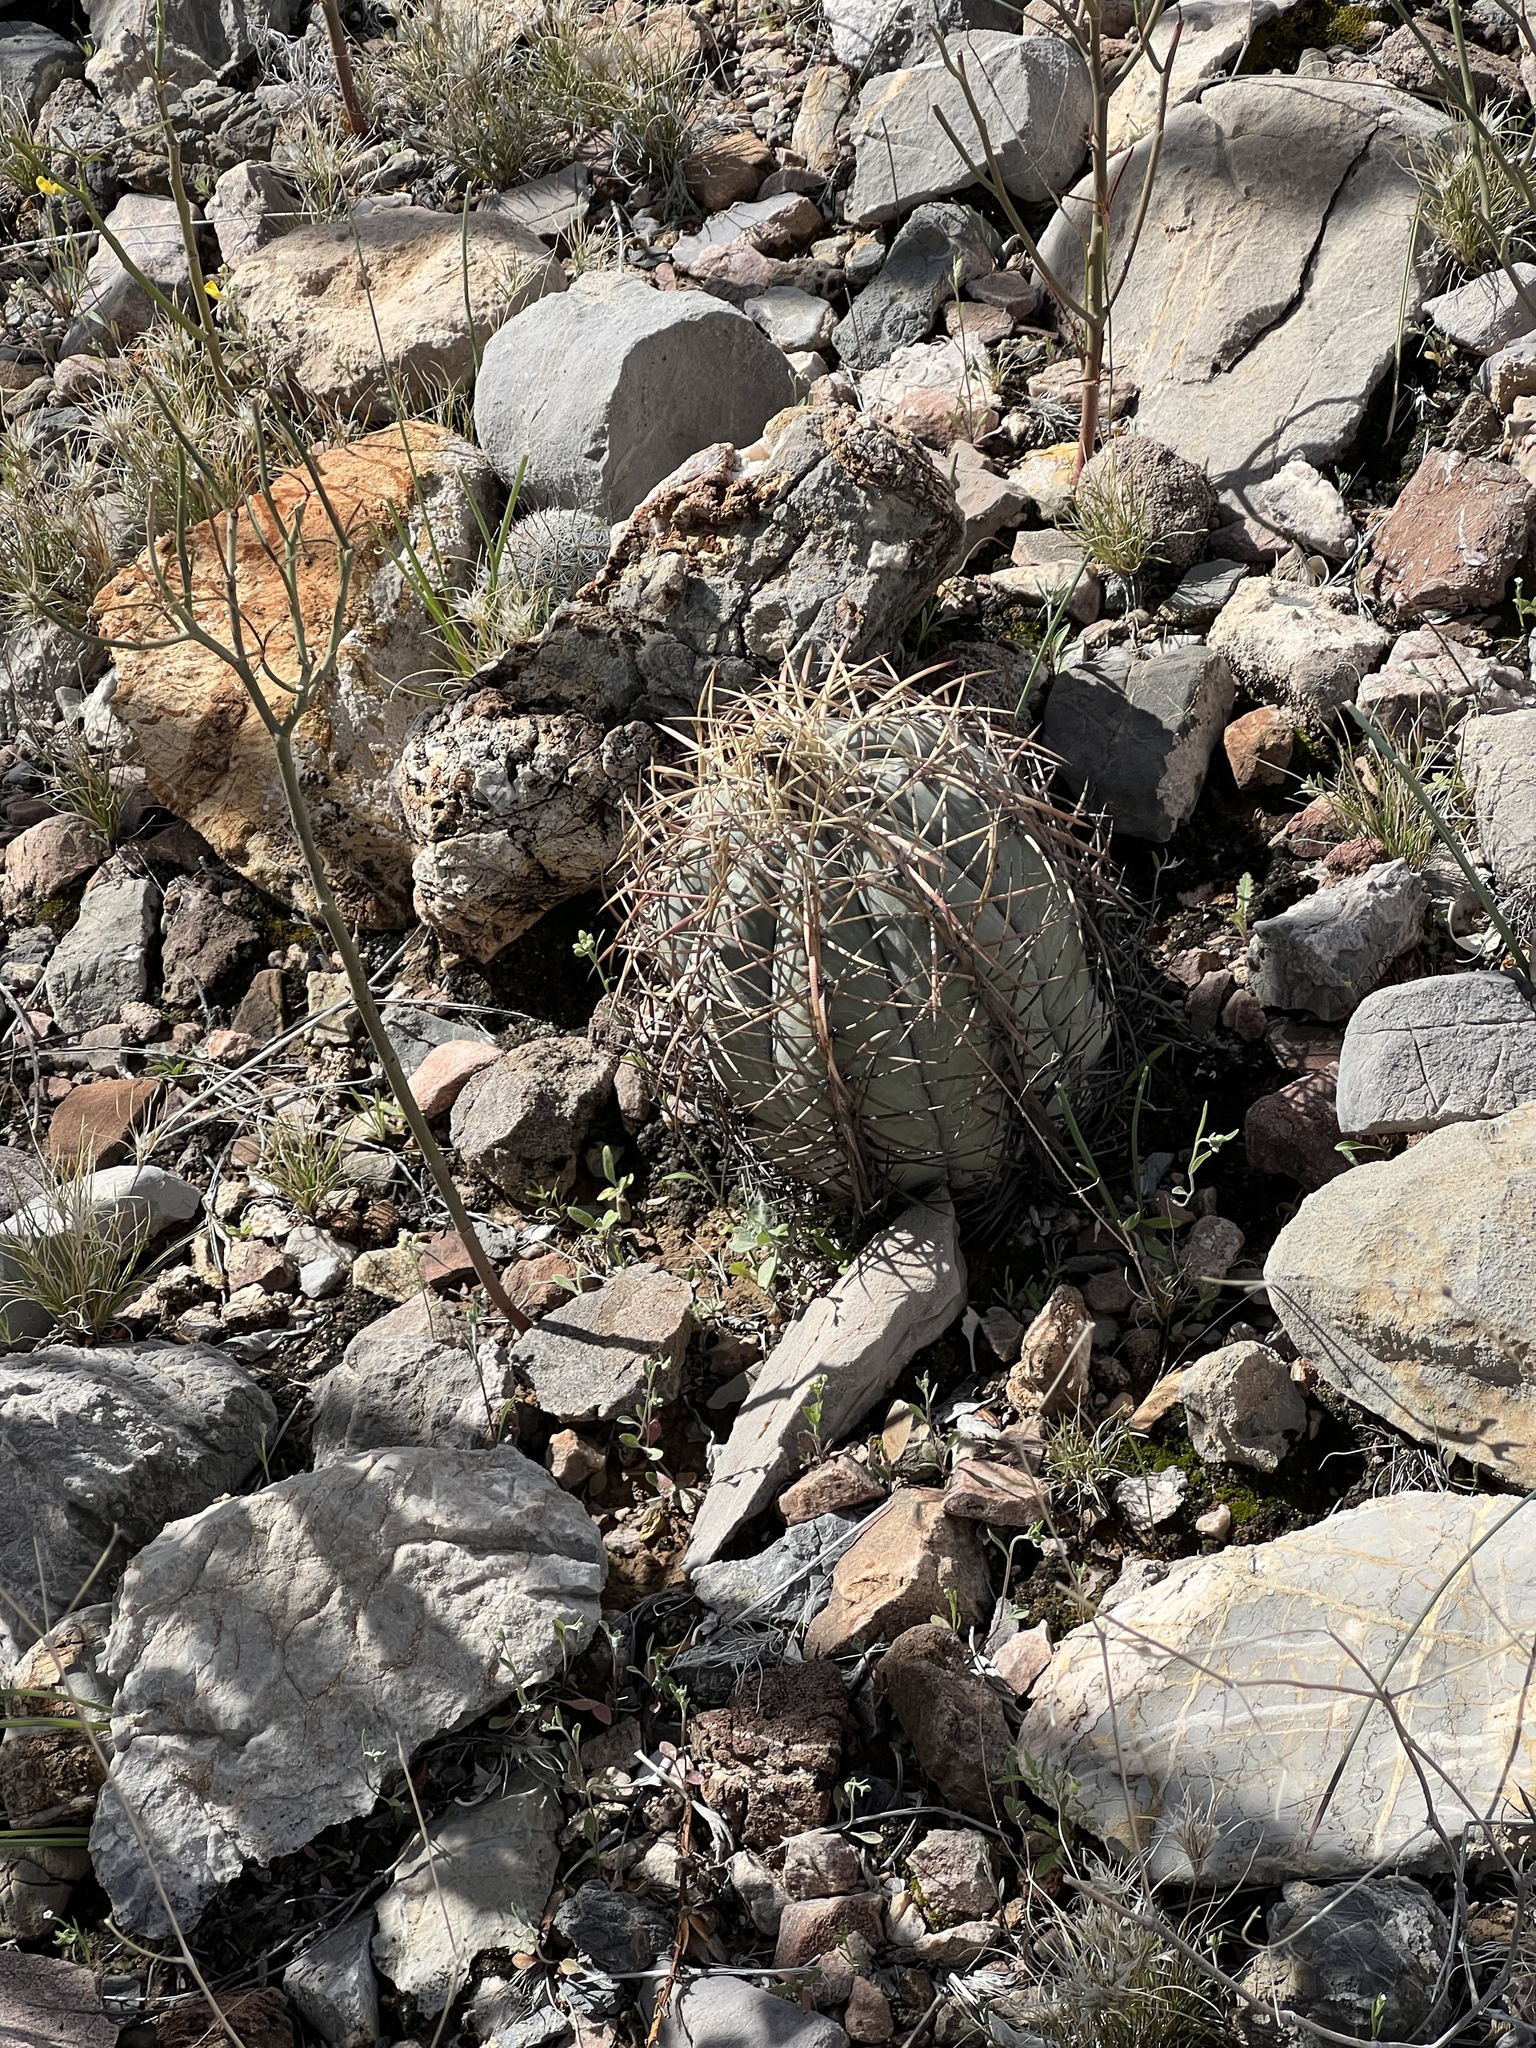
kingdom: Plantae
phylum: Tracheophyta
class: Magnoliopsida
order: Caryophyllales
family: Cactaceae
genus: Echinocactus
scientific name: Echinocactus horizonthalonius
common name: Devilshead
